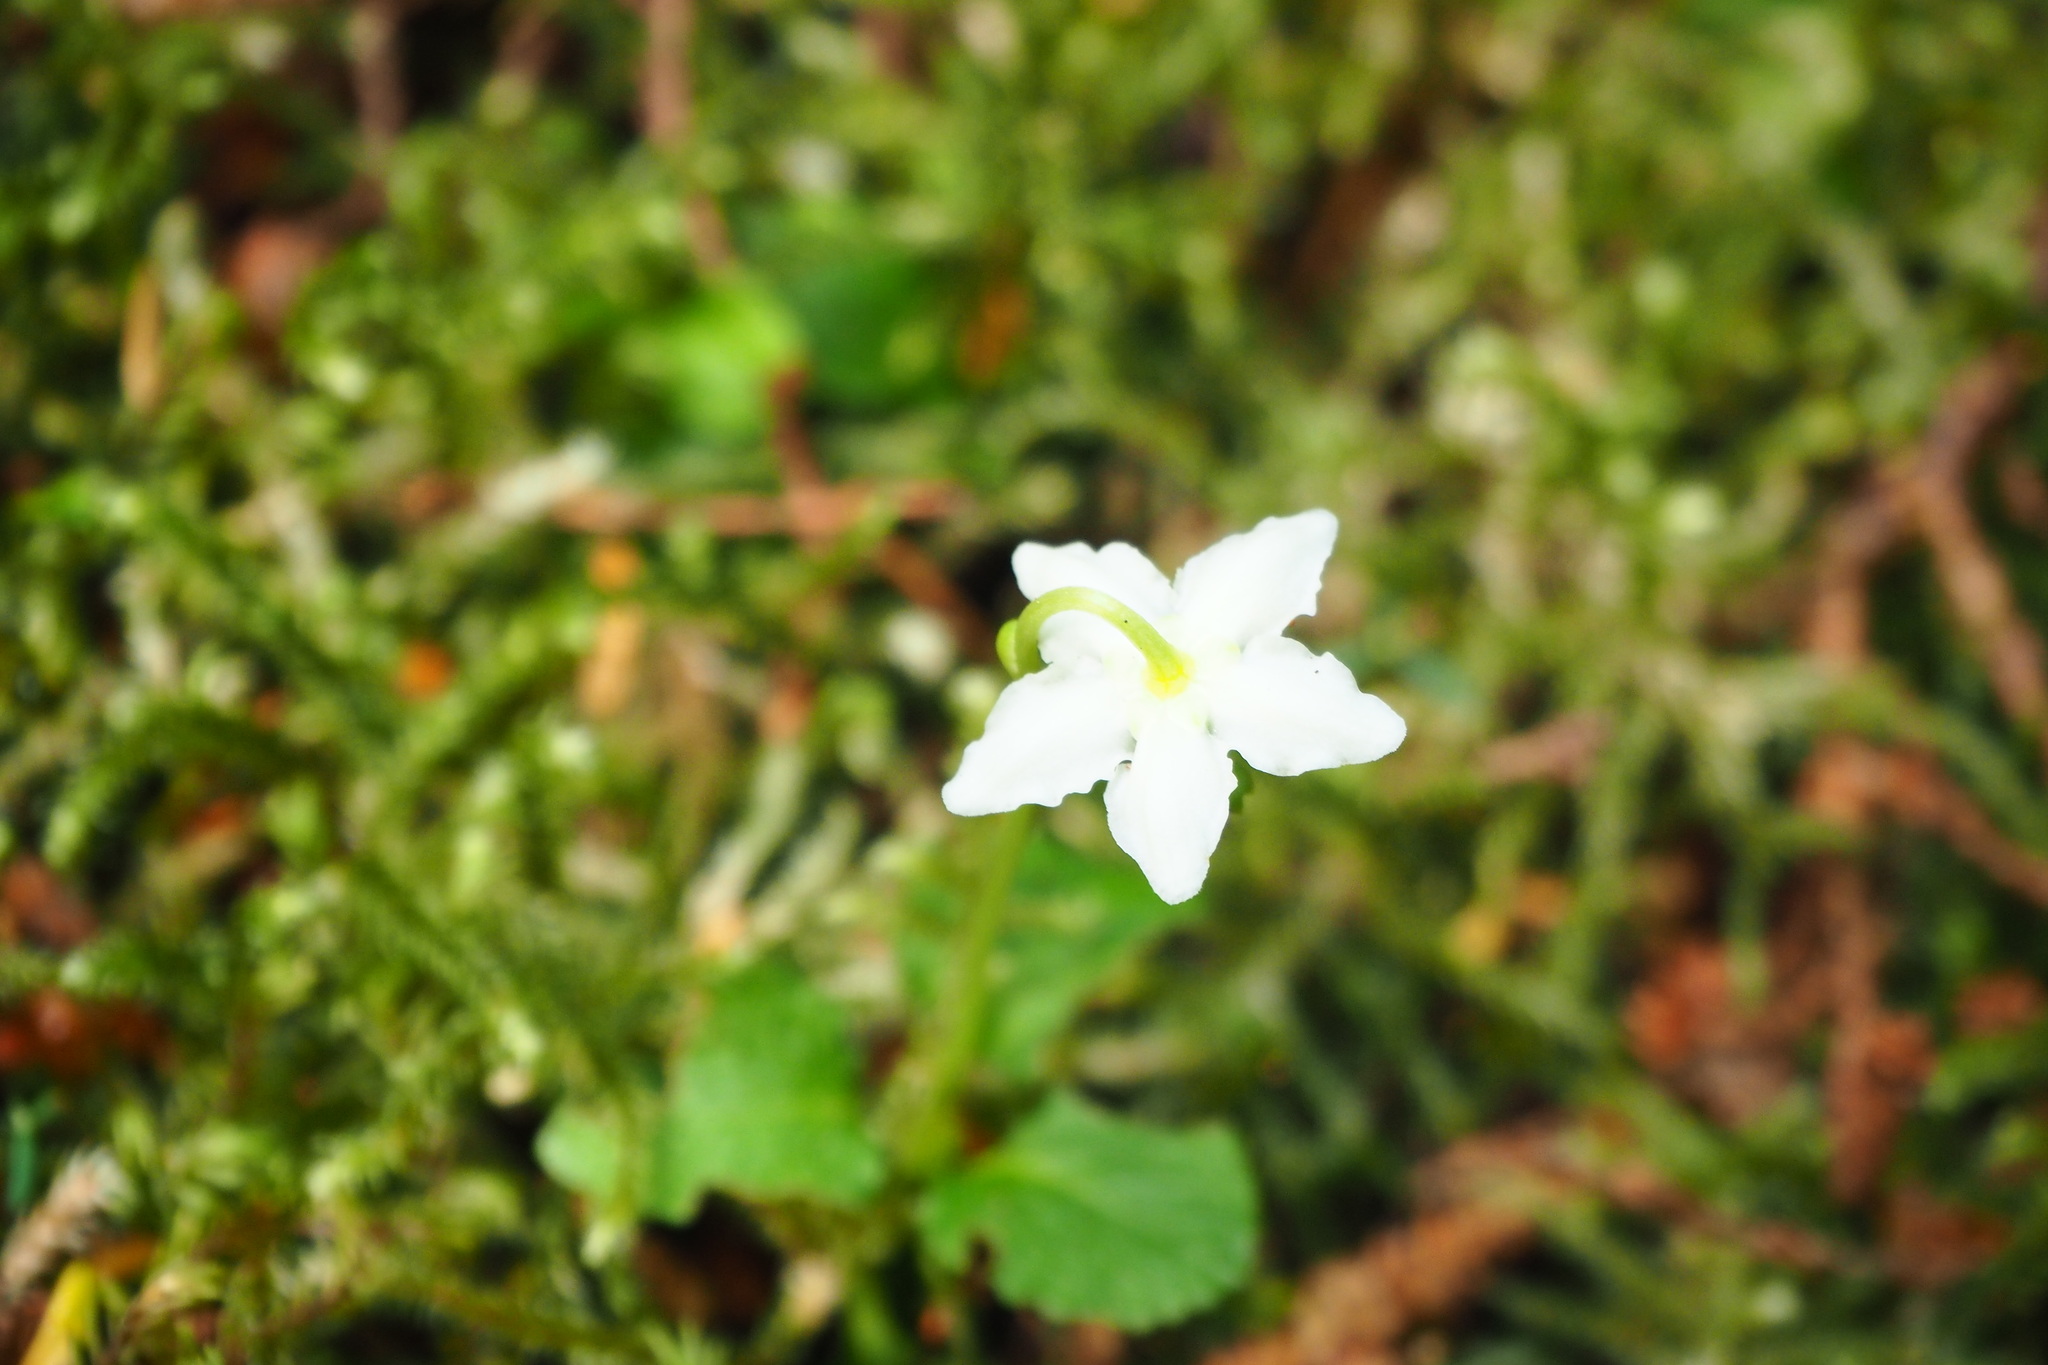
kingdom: Plantae
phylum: Tracheophyta
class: Magnoliopsida
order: Ericales
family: Ericaceae
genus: Moneses
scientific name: Moneses uniflora
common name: One-flowered wintergreen
